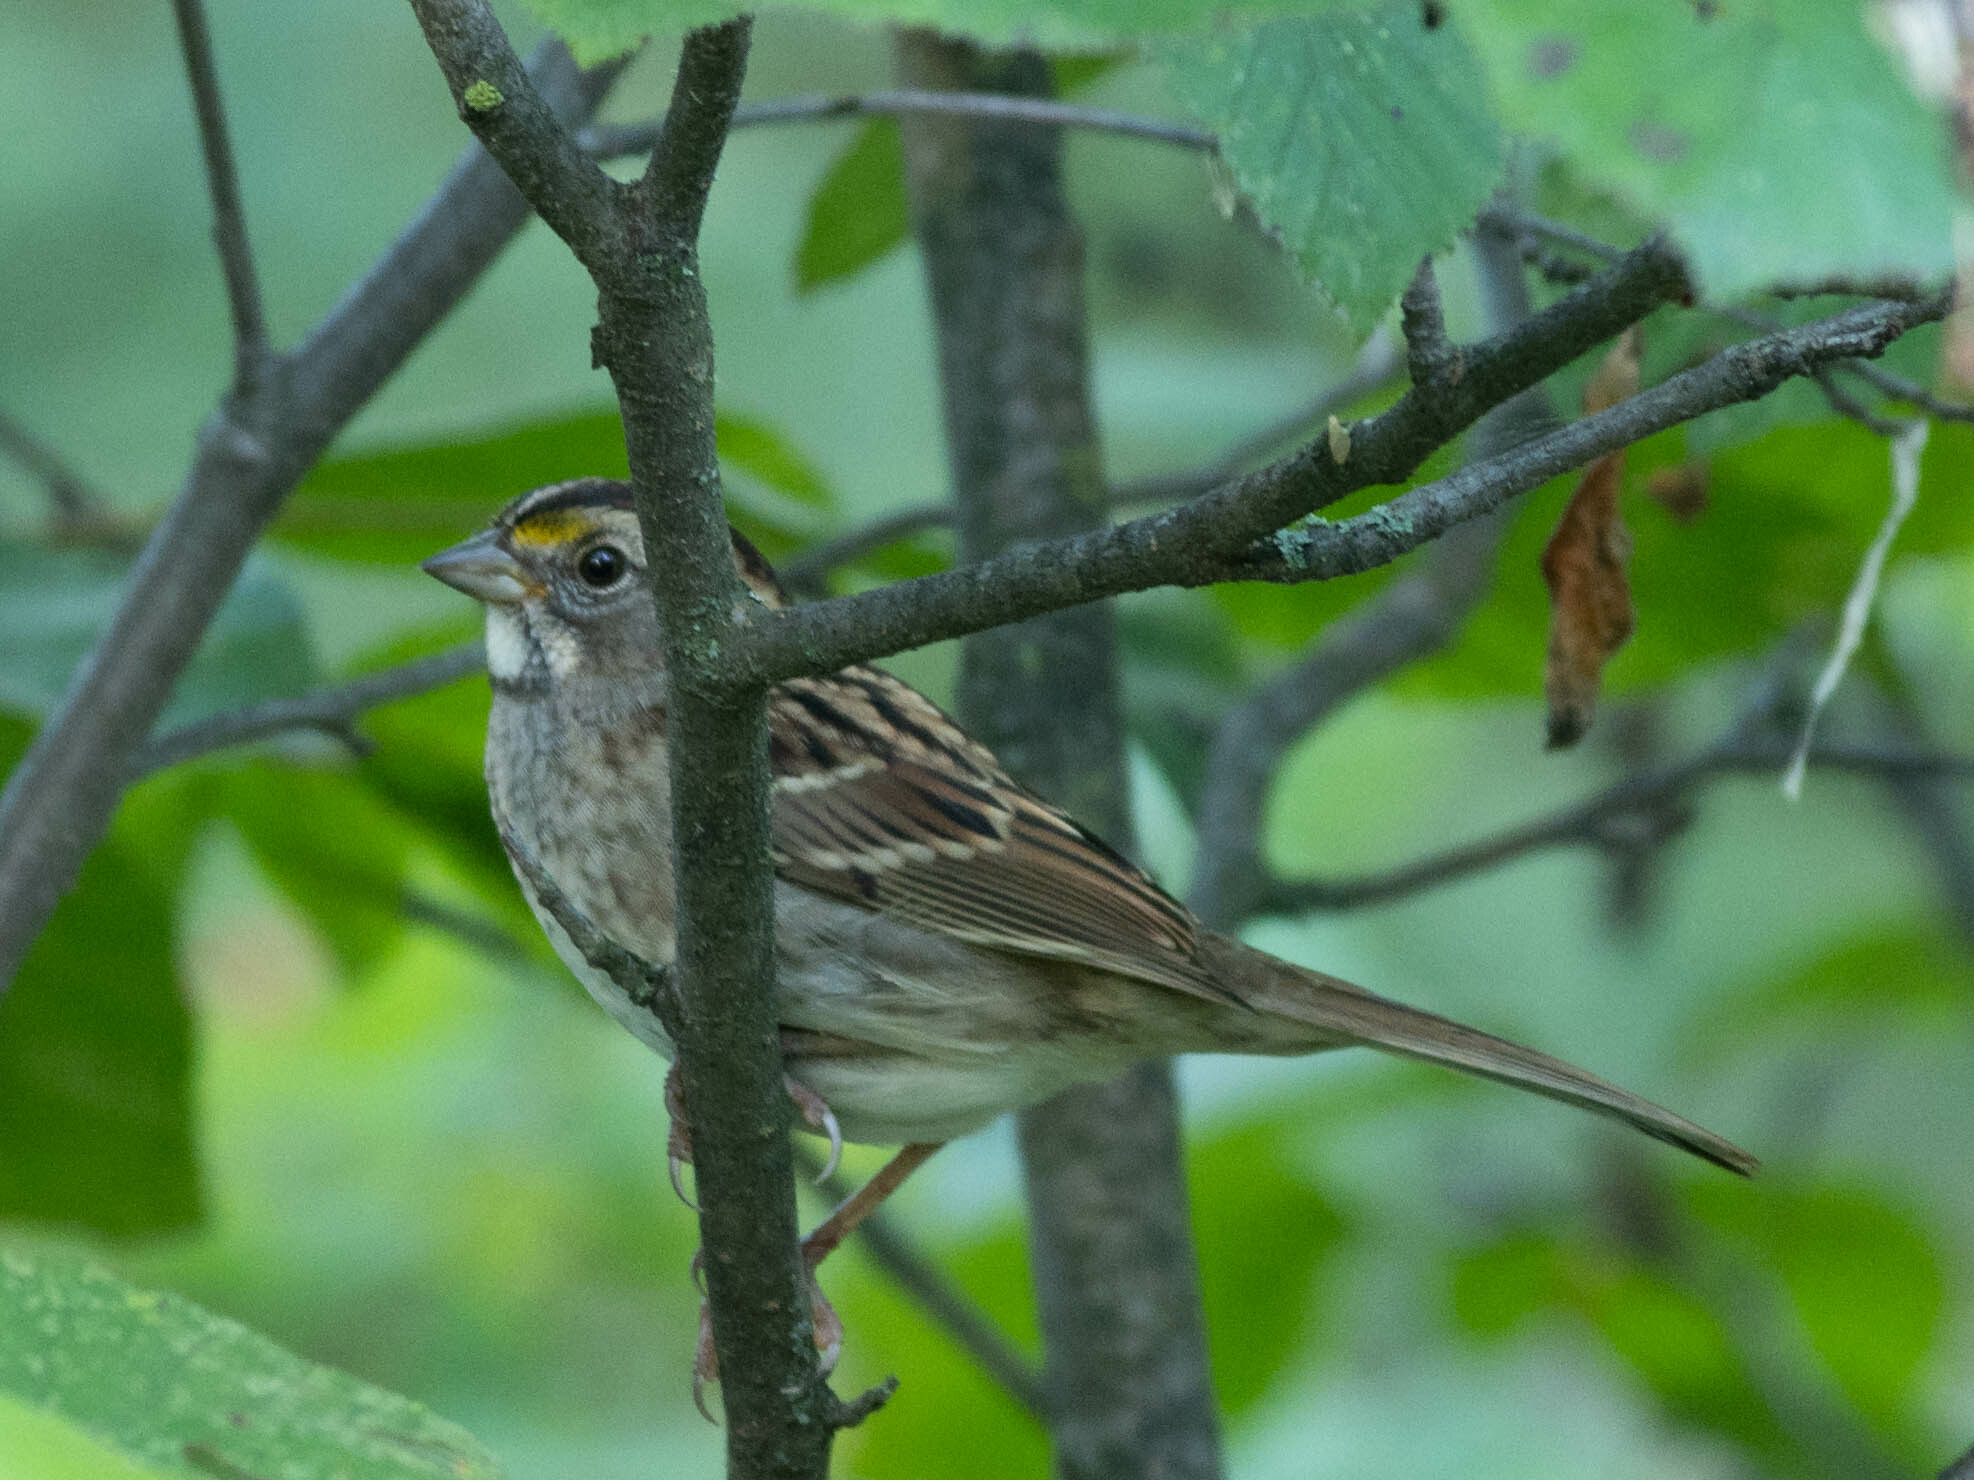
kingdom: Animalia
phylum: Chordata
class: Aves
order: Passeriformes
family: Passerellidae
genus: Zonotrichia
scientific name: Zonotrichia albicollis
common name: White-throated sparrow
